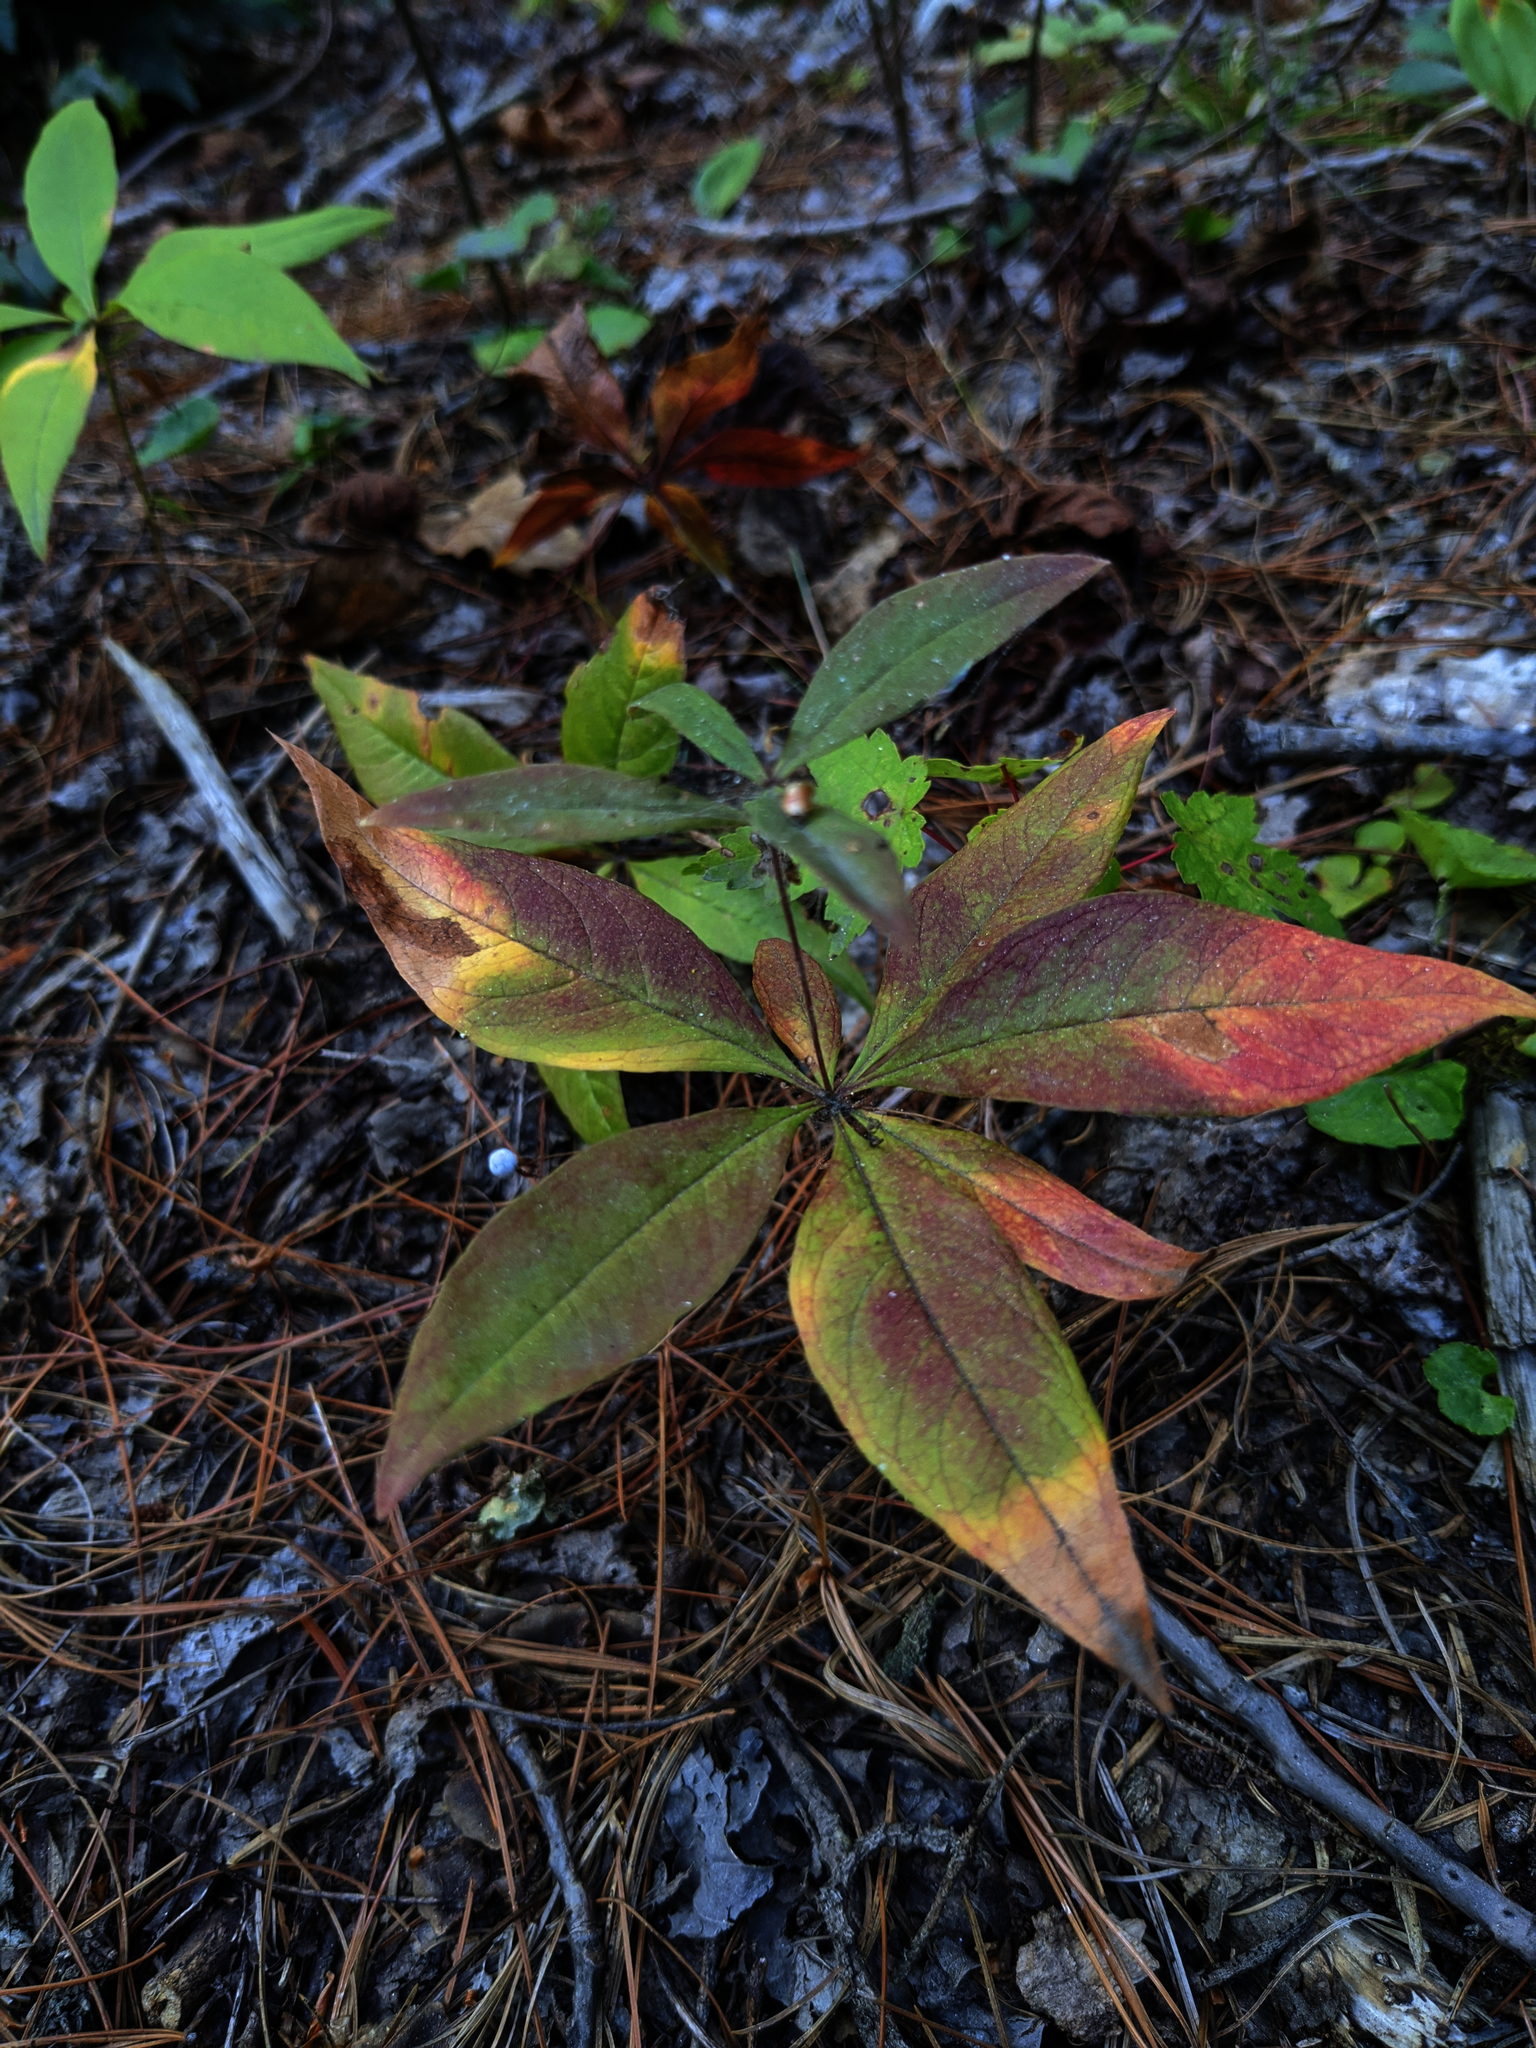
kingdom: Plantae
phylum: Tracheophyta
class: Liliopsida
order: Liliales
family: Liliaceae
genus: Medeola
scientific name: Medeola virginiana
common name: Indian cucumber-root
